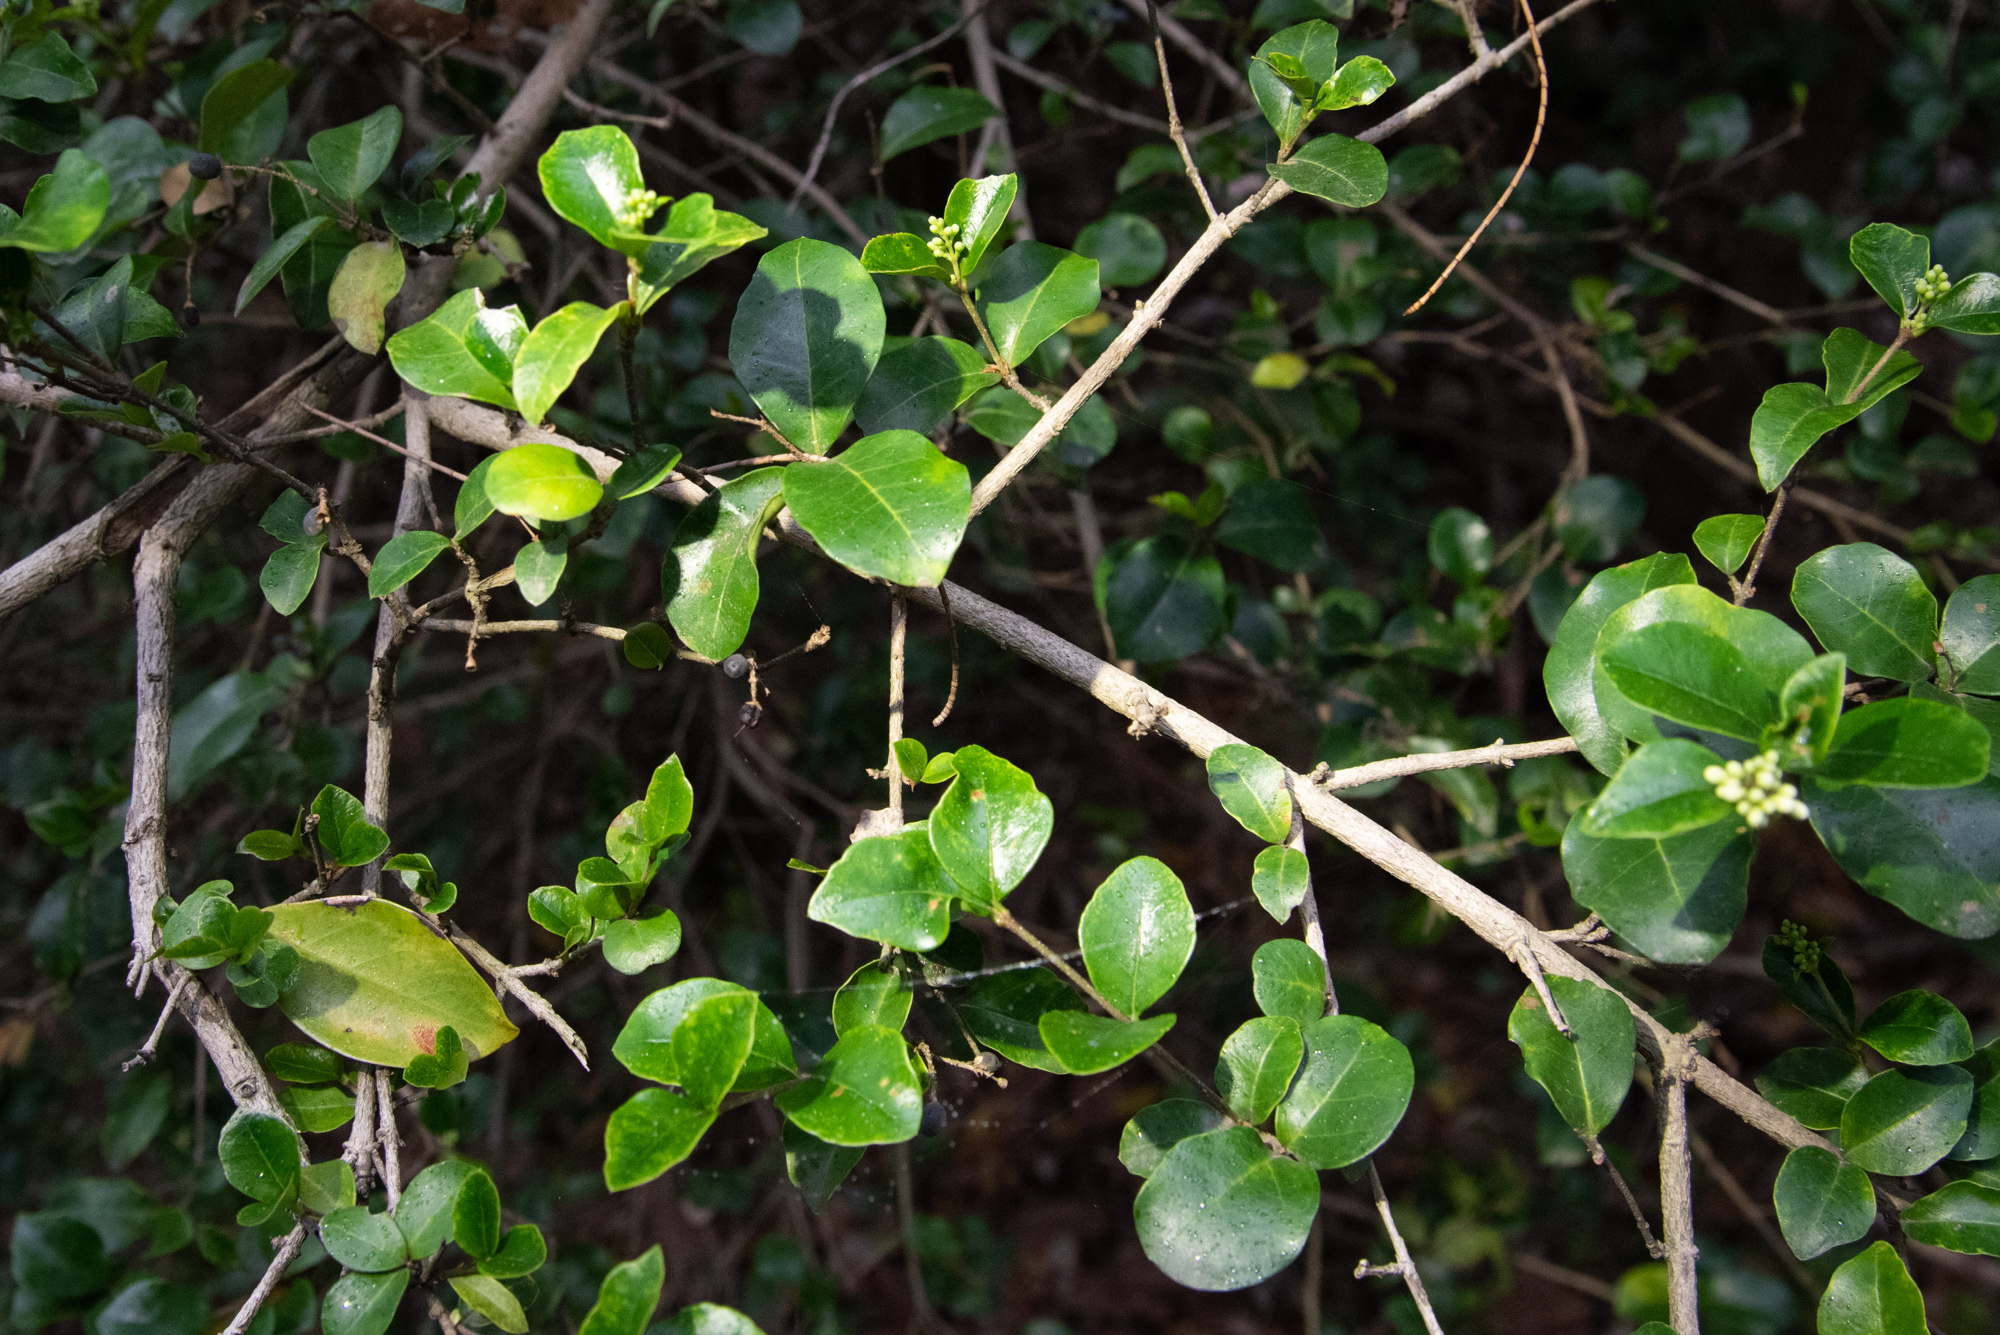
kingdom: Plantae
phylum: Tracheophyta
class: Magnoliopsida
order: Lamiales
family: Oleaceae
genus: Ligustrum
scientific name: Ligustrum pricei
